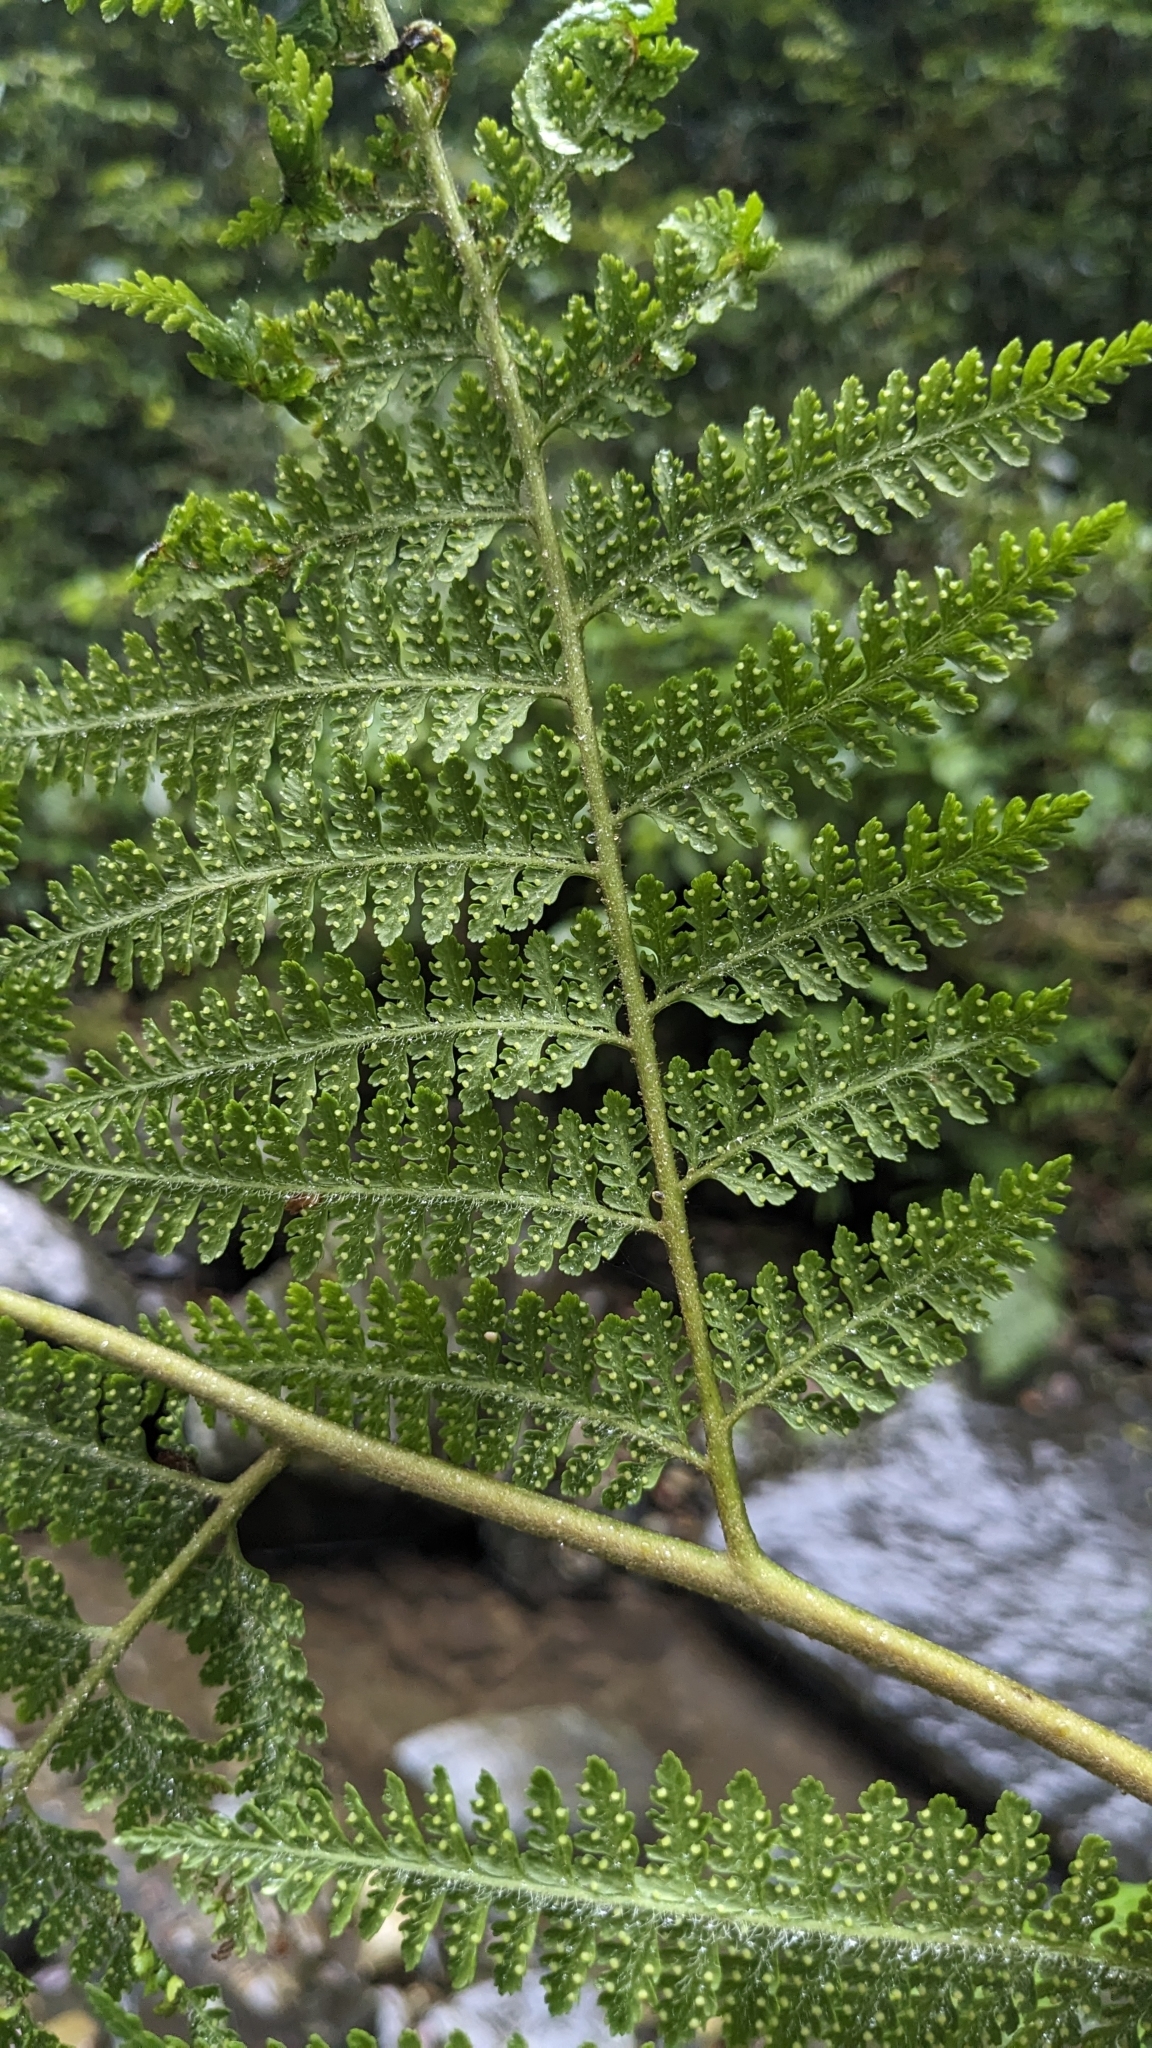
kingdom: Plantae
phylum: Tracheophyta
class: Polypodiopsida
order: Polypodiales
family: Dennstaedtiaceae
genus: Microlepia
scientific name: Microlepia smithii
